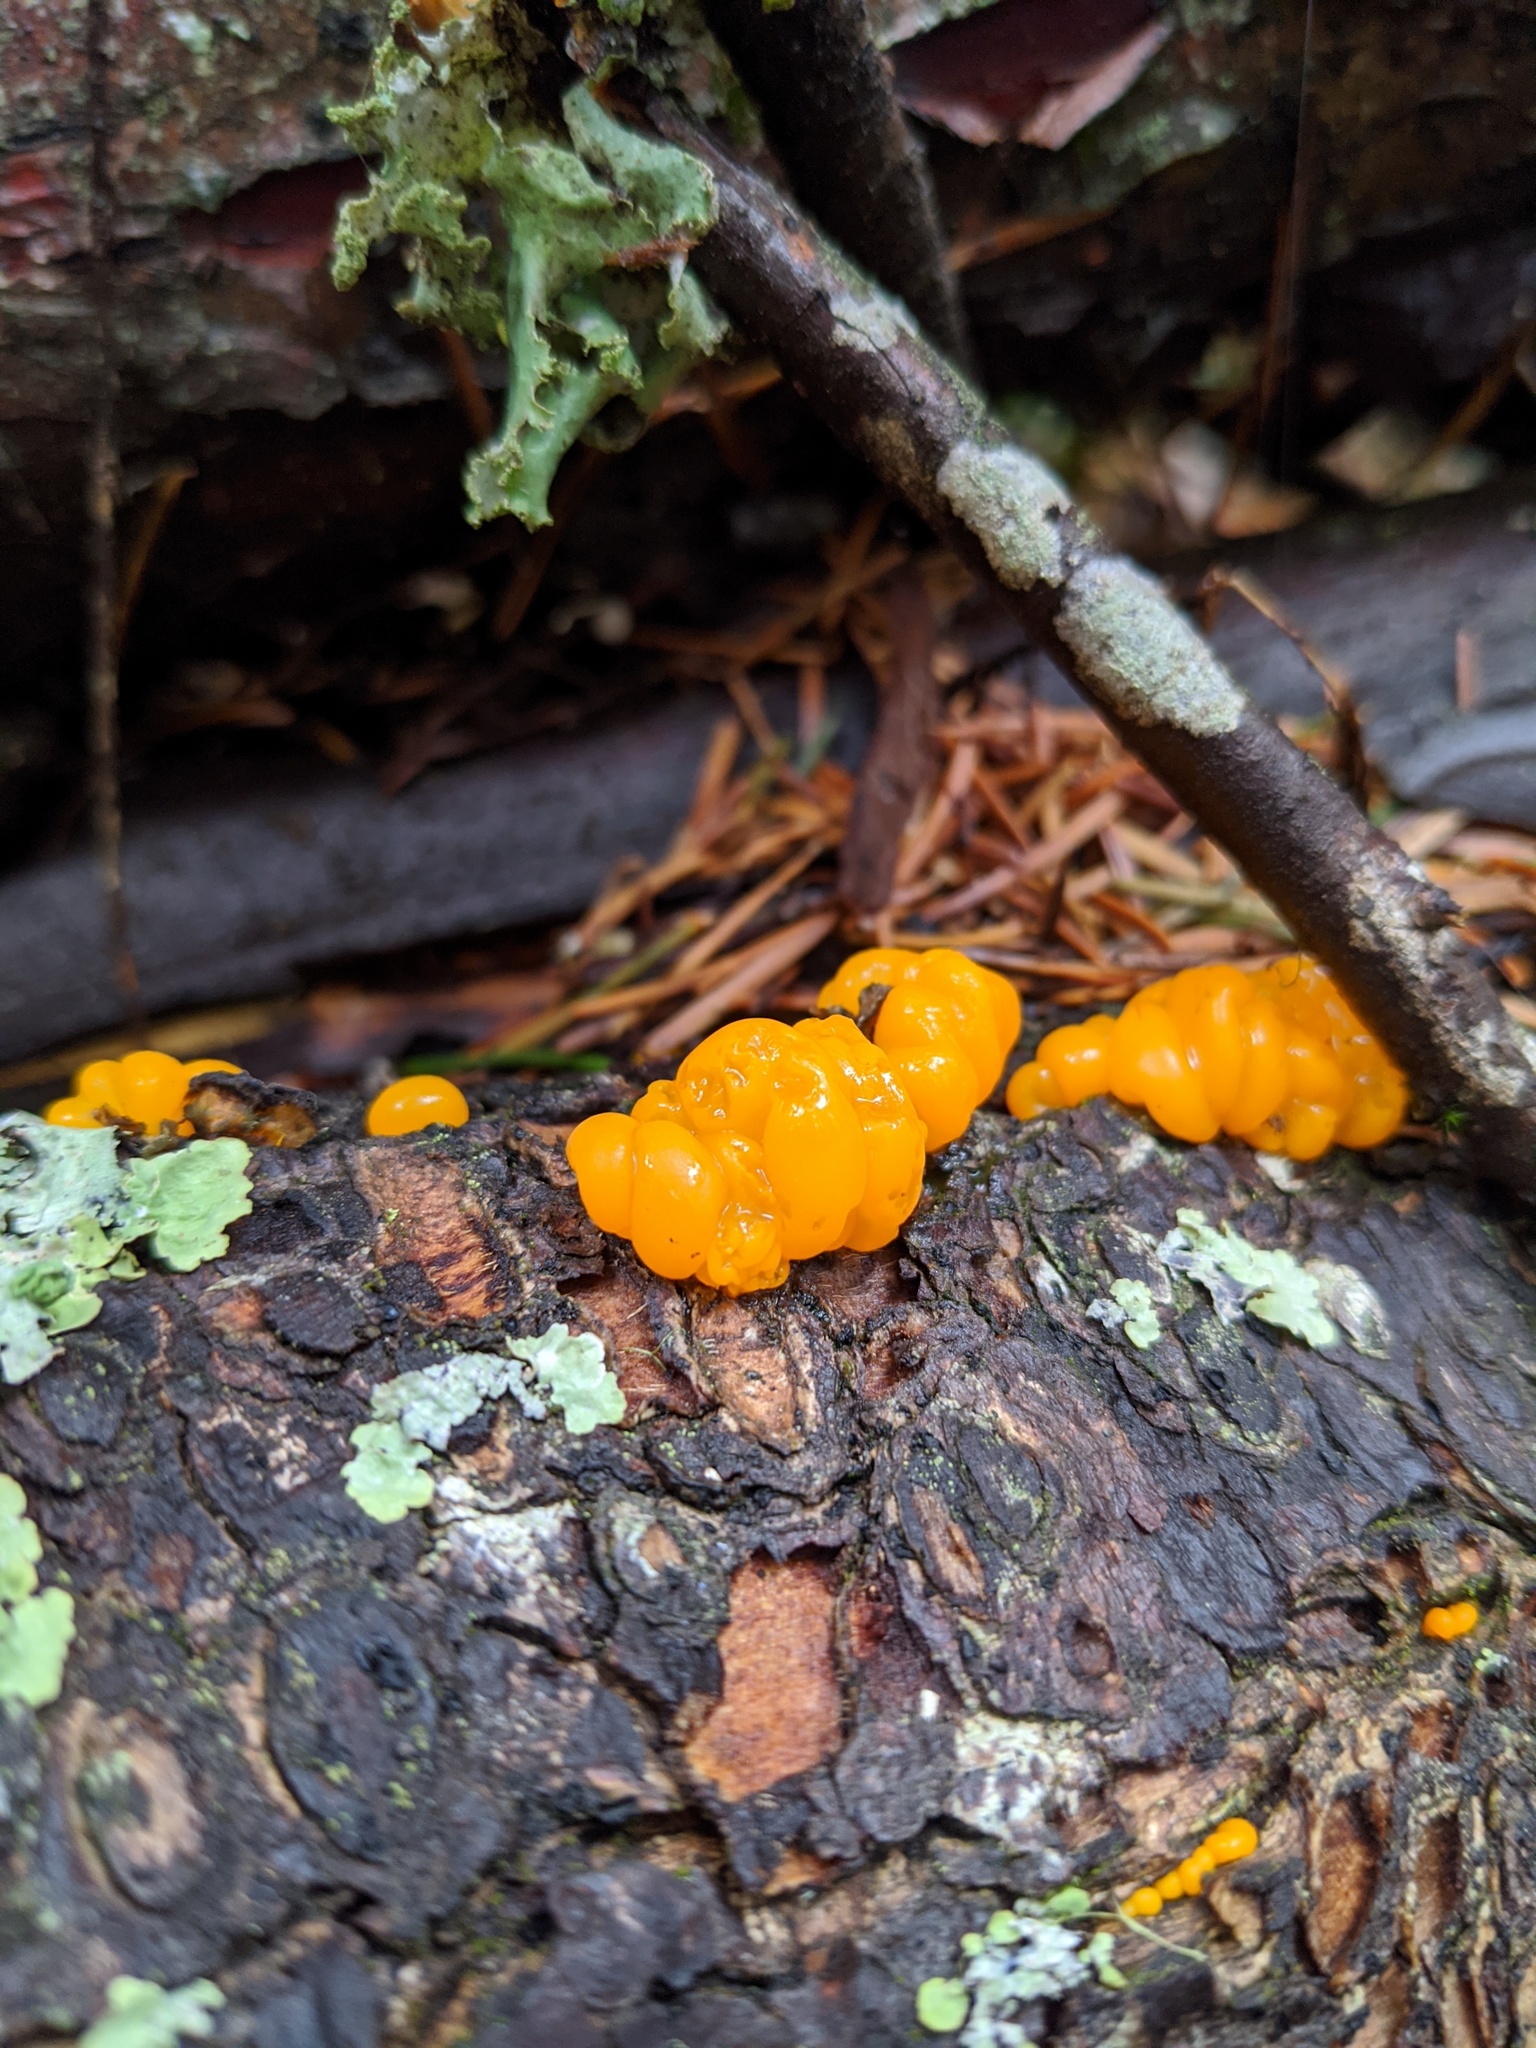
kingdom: Fungi
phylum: Basidiomycota
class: Dacrymycetes
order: Dacrymycetales
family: Dacrymycetaceae
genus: Dacrymyces
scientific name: Dacrymyces chrysospermus
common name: Orange jelly spot
